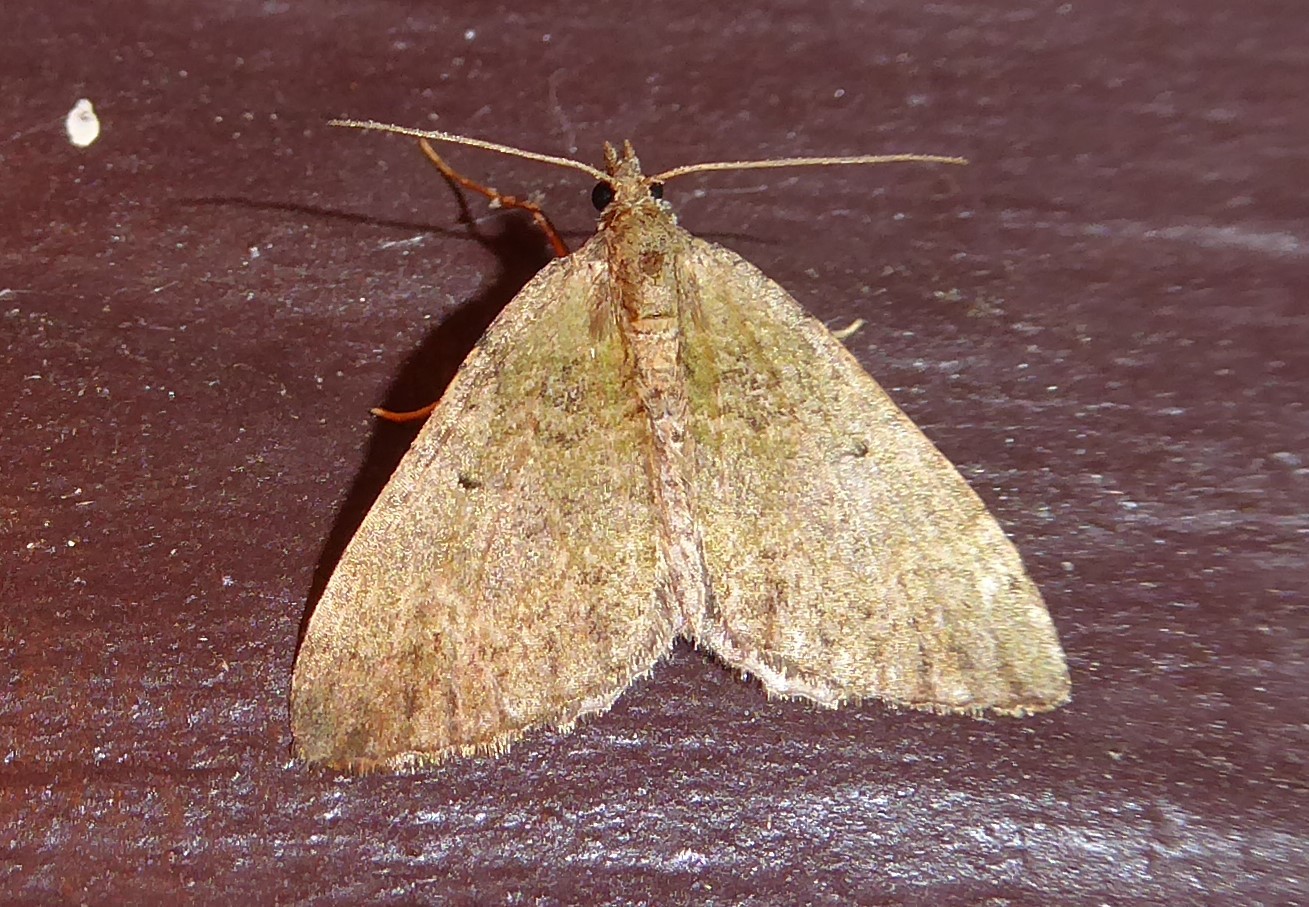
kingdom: Animalia
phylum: Arthropoda
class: Insecta
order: Lepidoptera
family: Geometridae
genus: Epyaxa
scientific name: Epyaxa rosearia
